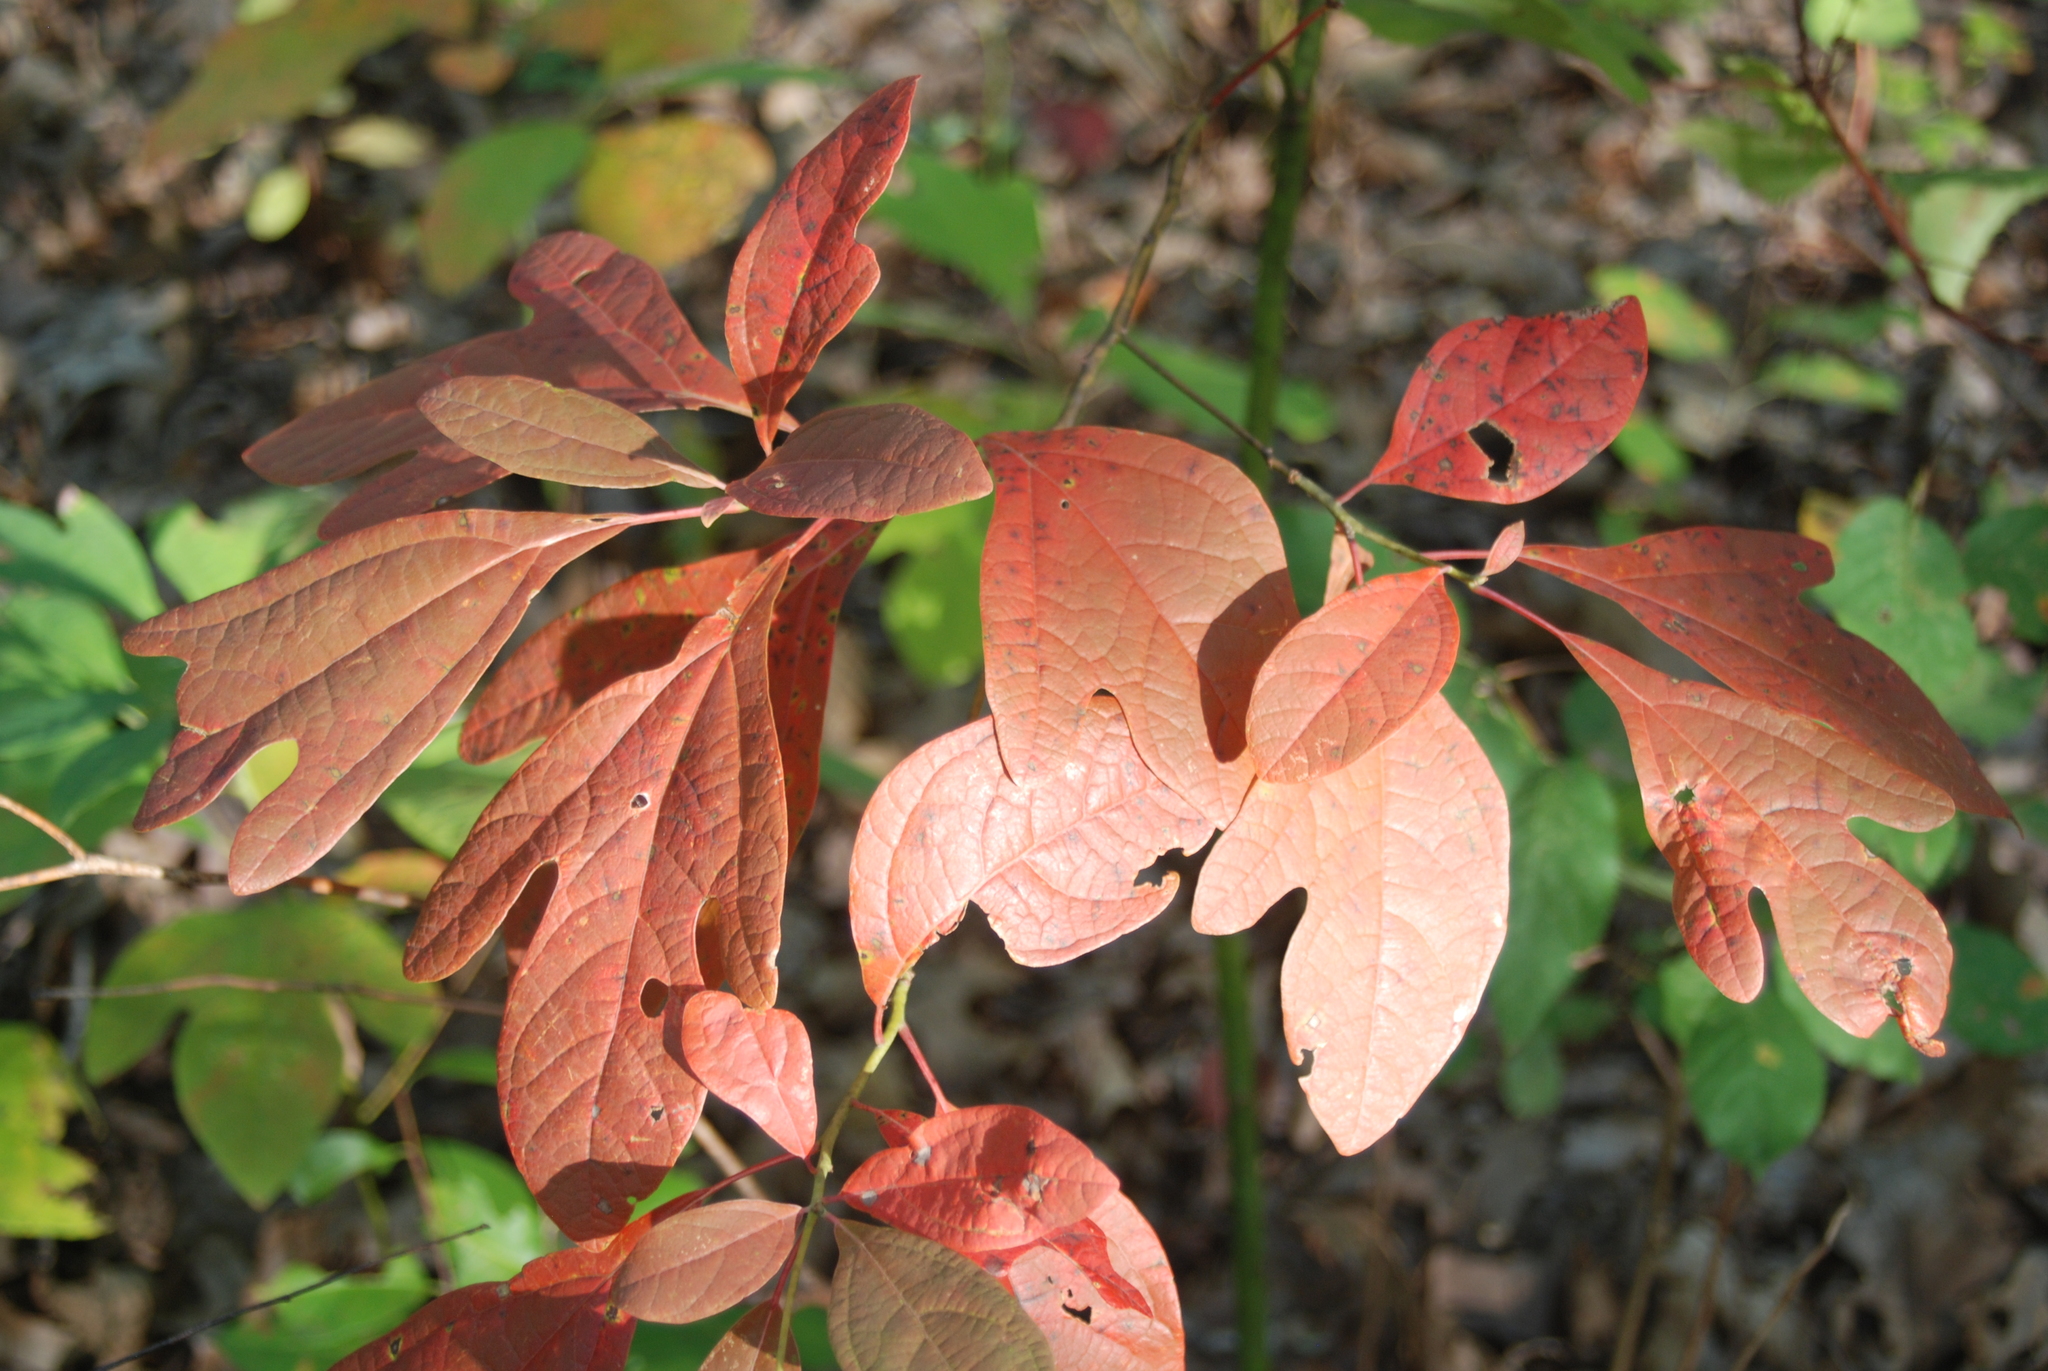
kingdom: Plantae
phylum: Tracheophyta
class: Magnoliopsida
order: Laurales
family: Lauraceae
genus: Sassafras
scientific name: Sassafras albidum
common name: Sassafras
